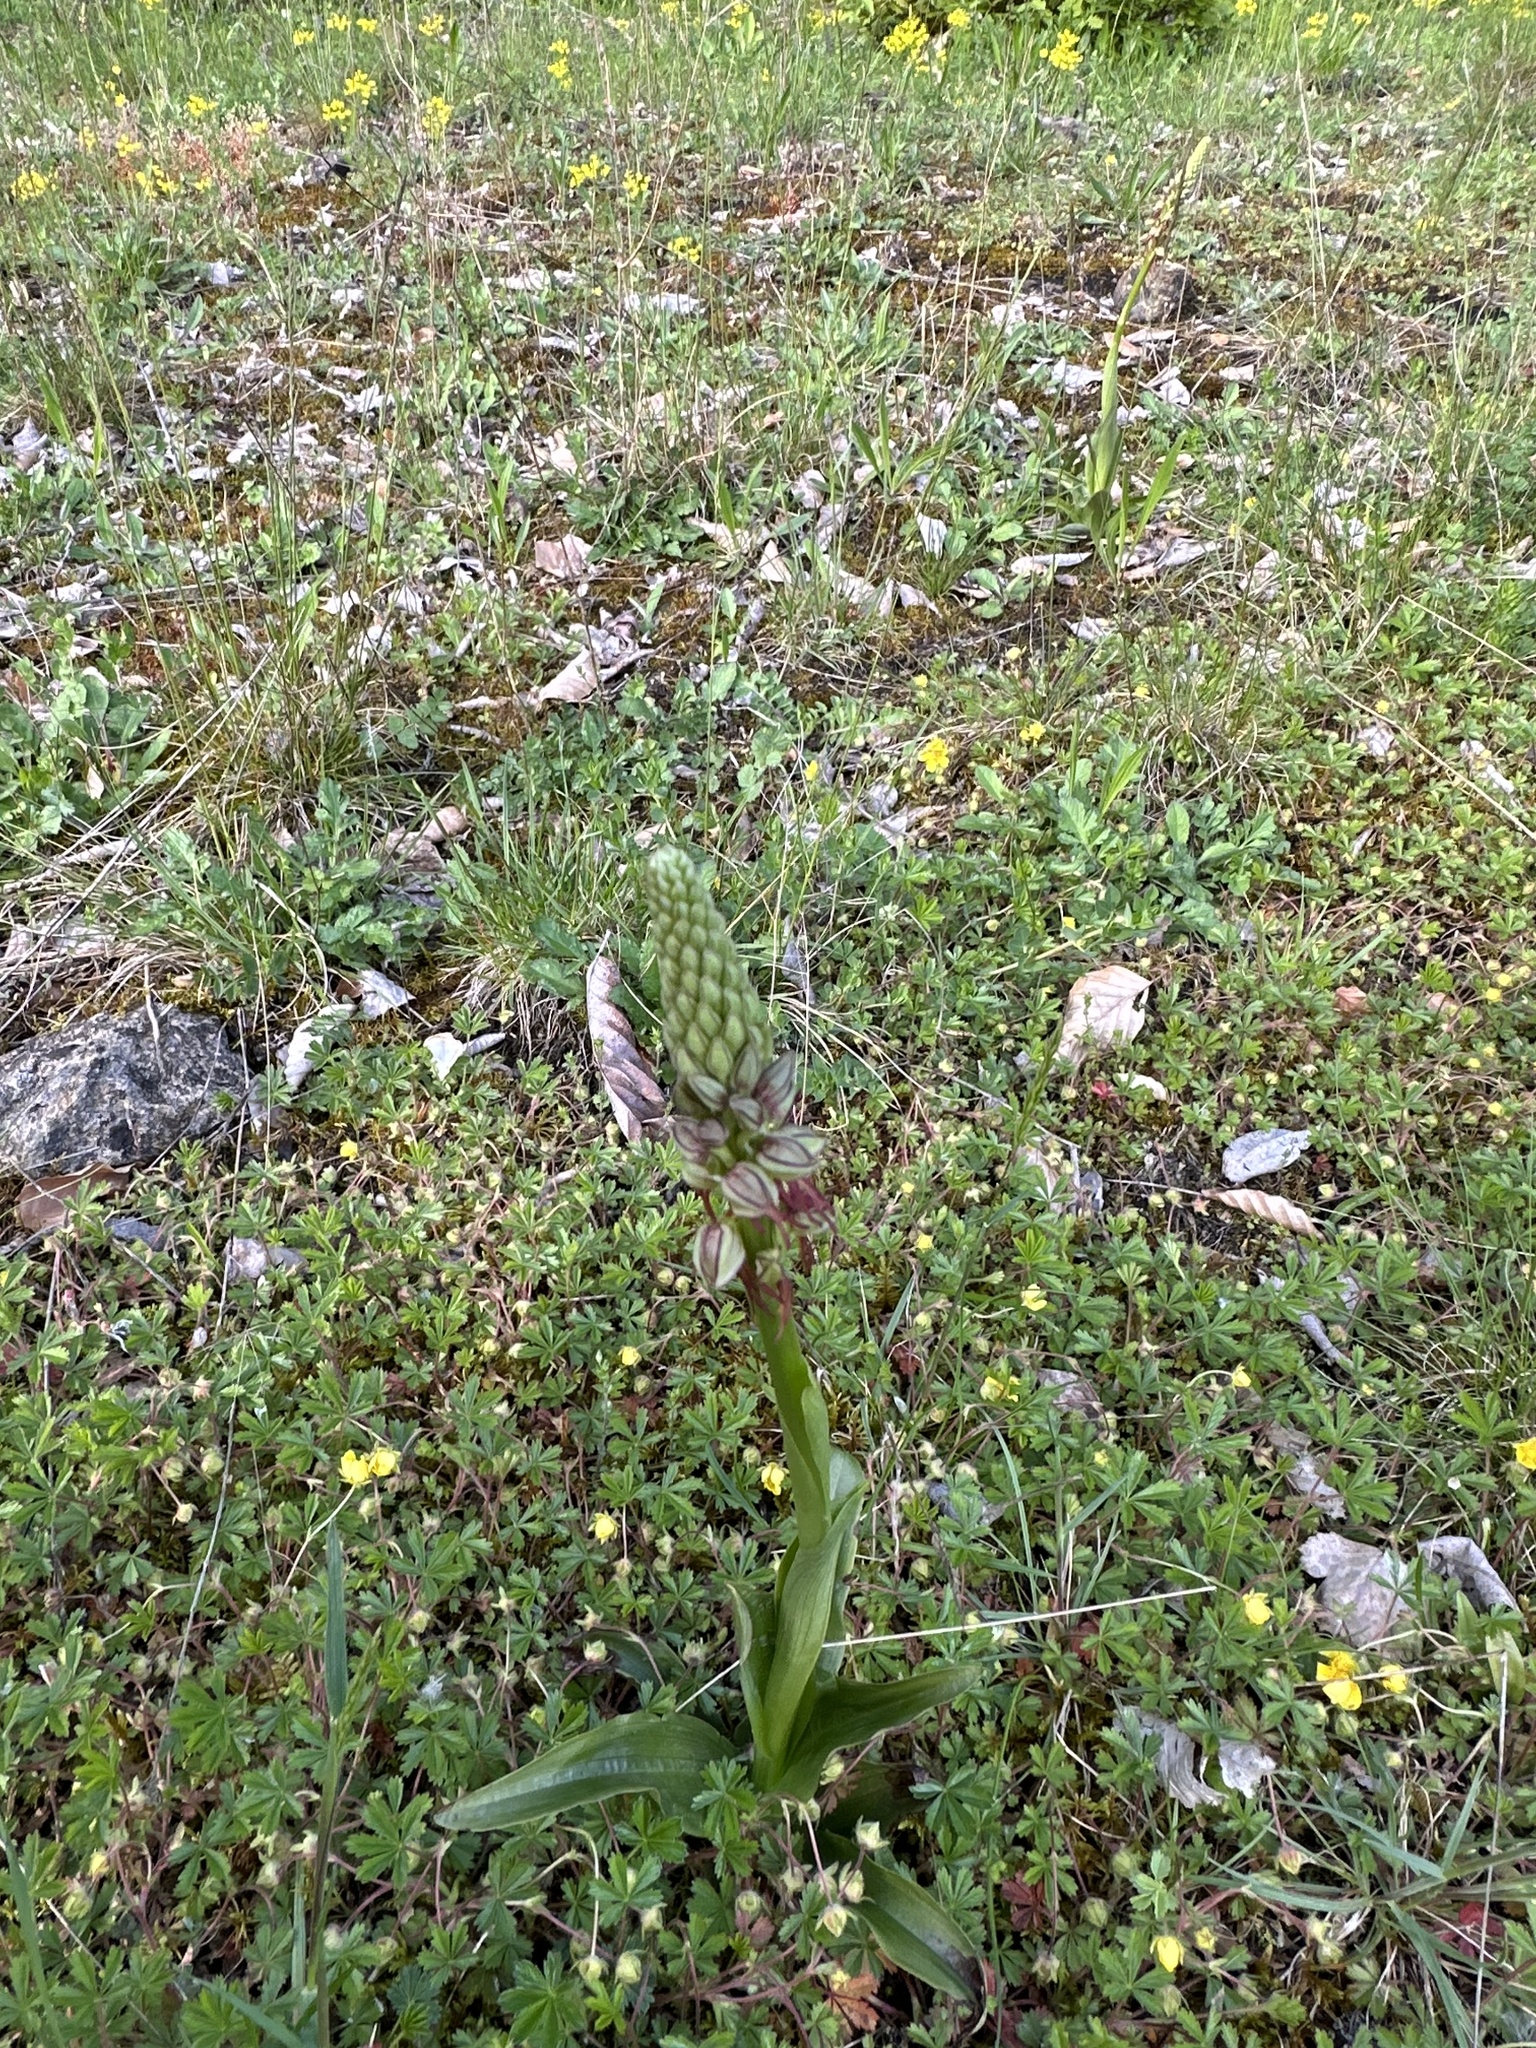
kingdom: Plantae
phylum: Tracheophyta
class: Liliopsida
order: Asparagales
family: Orchidaceae
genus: Orchis
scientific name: Orchis anthropophora
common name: Man orchid
